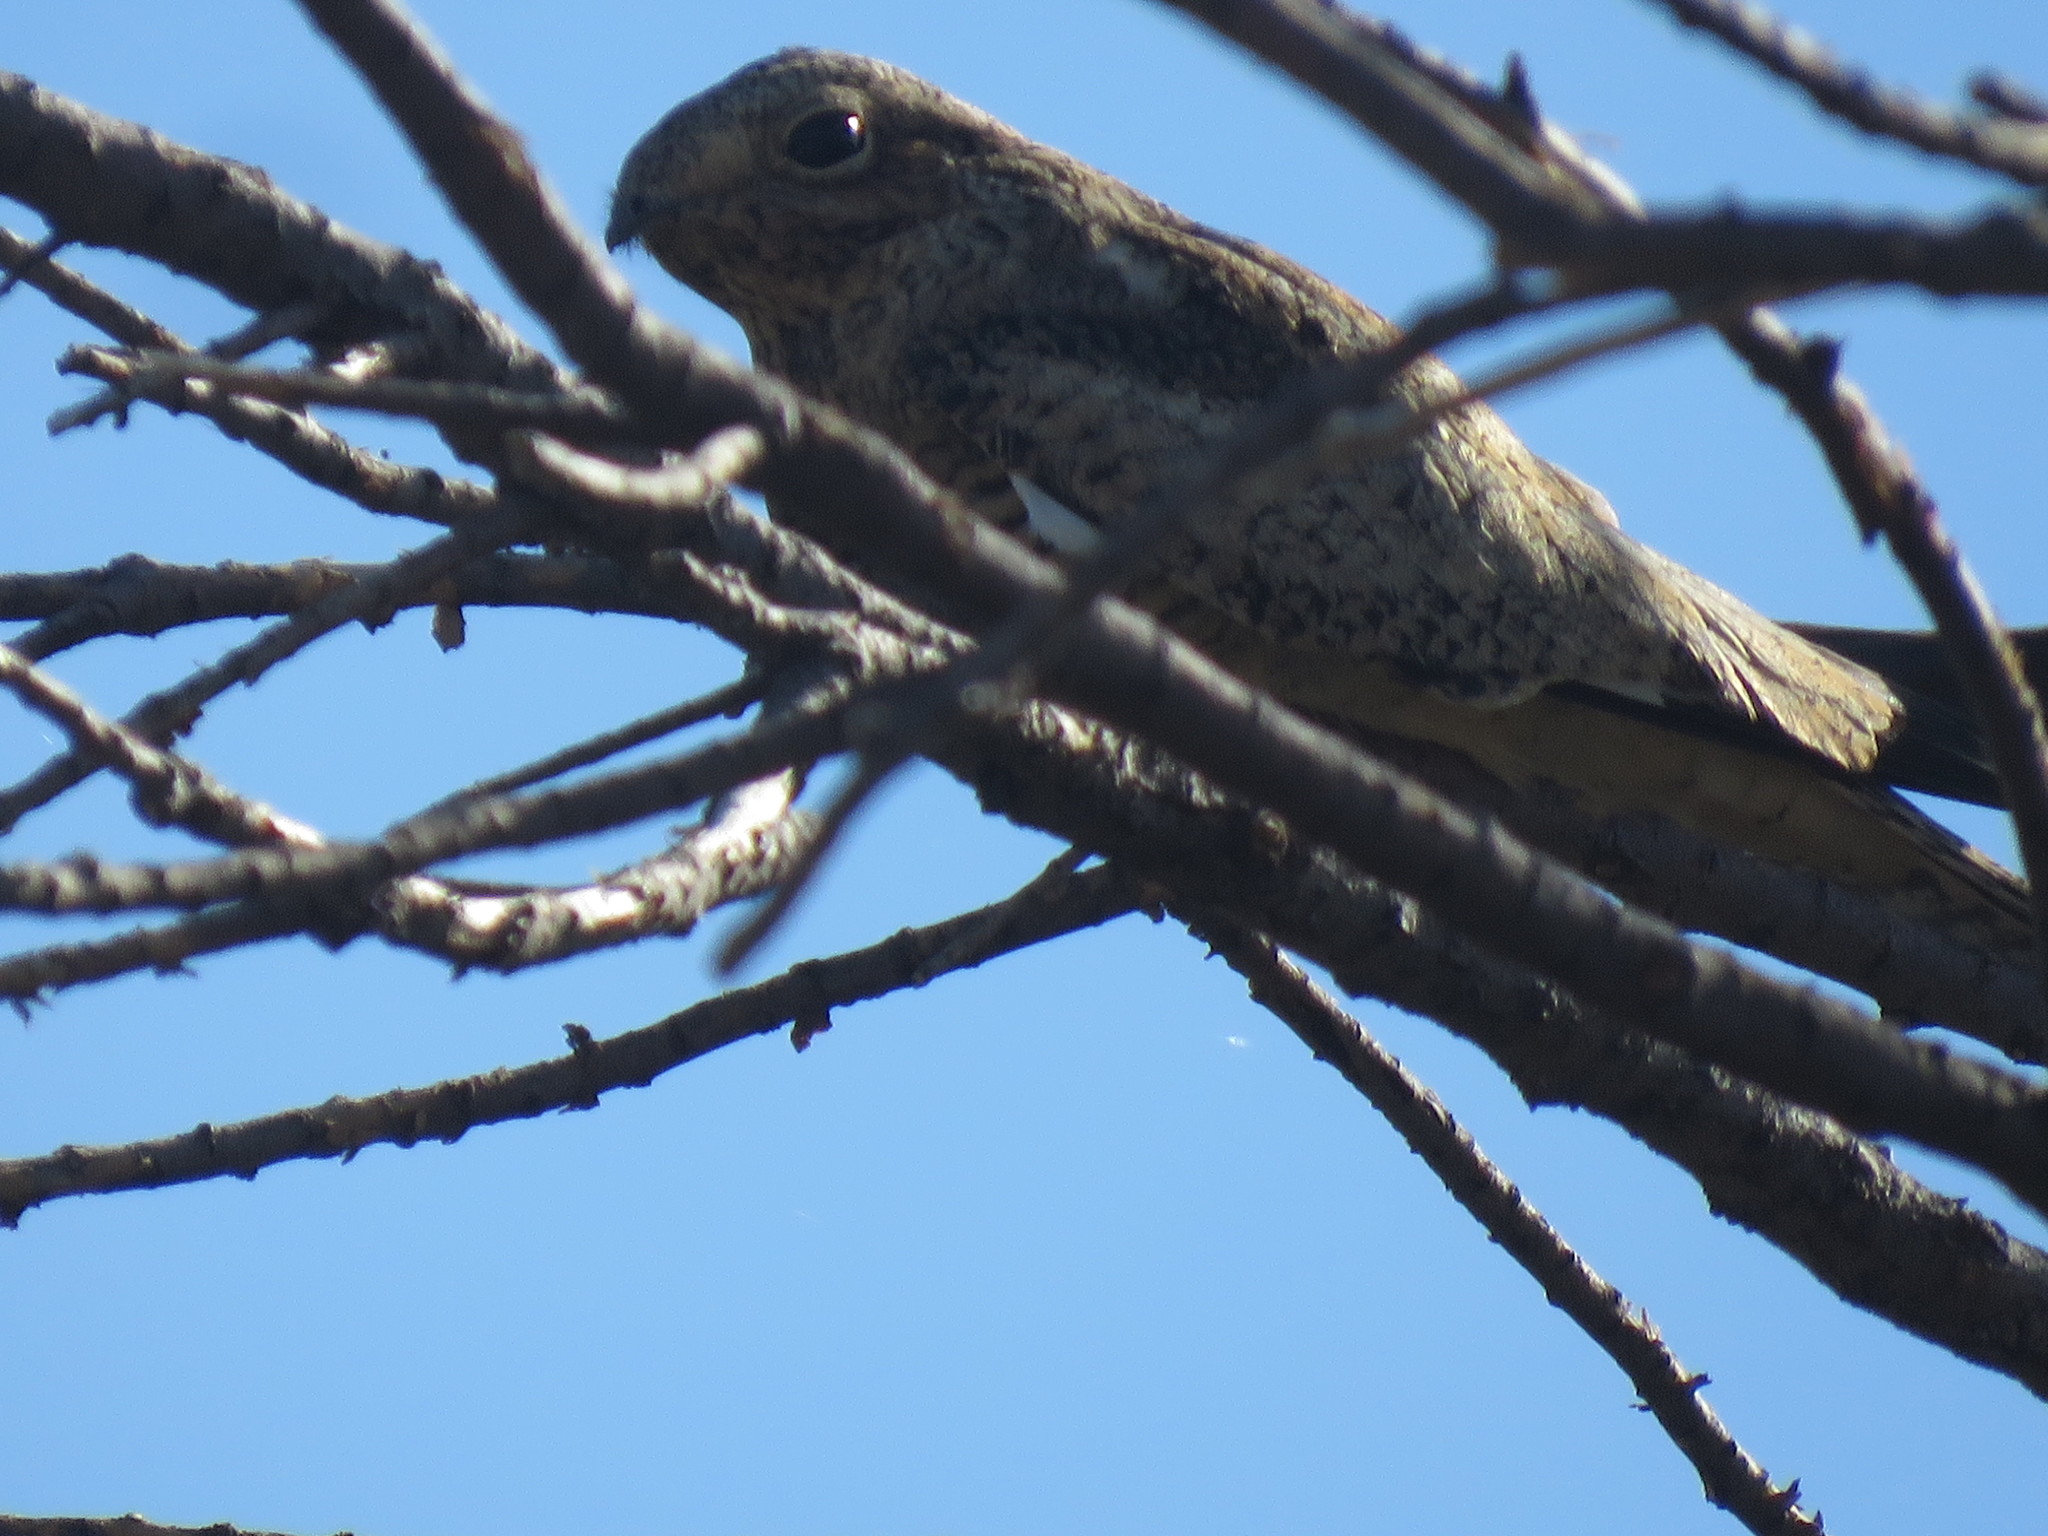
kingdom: Animalia
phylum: Chordata
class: Aves
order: Caprimulgiformes
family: Caprimulgidae
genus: Chordeiles
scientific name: Chordeiles minor
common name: Common nighthawk
